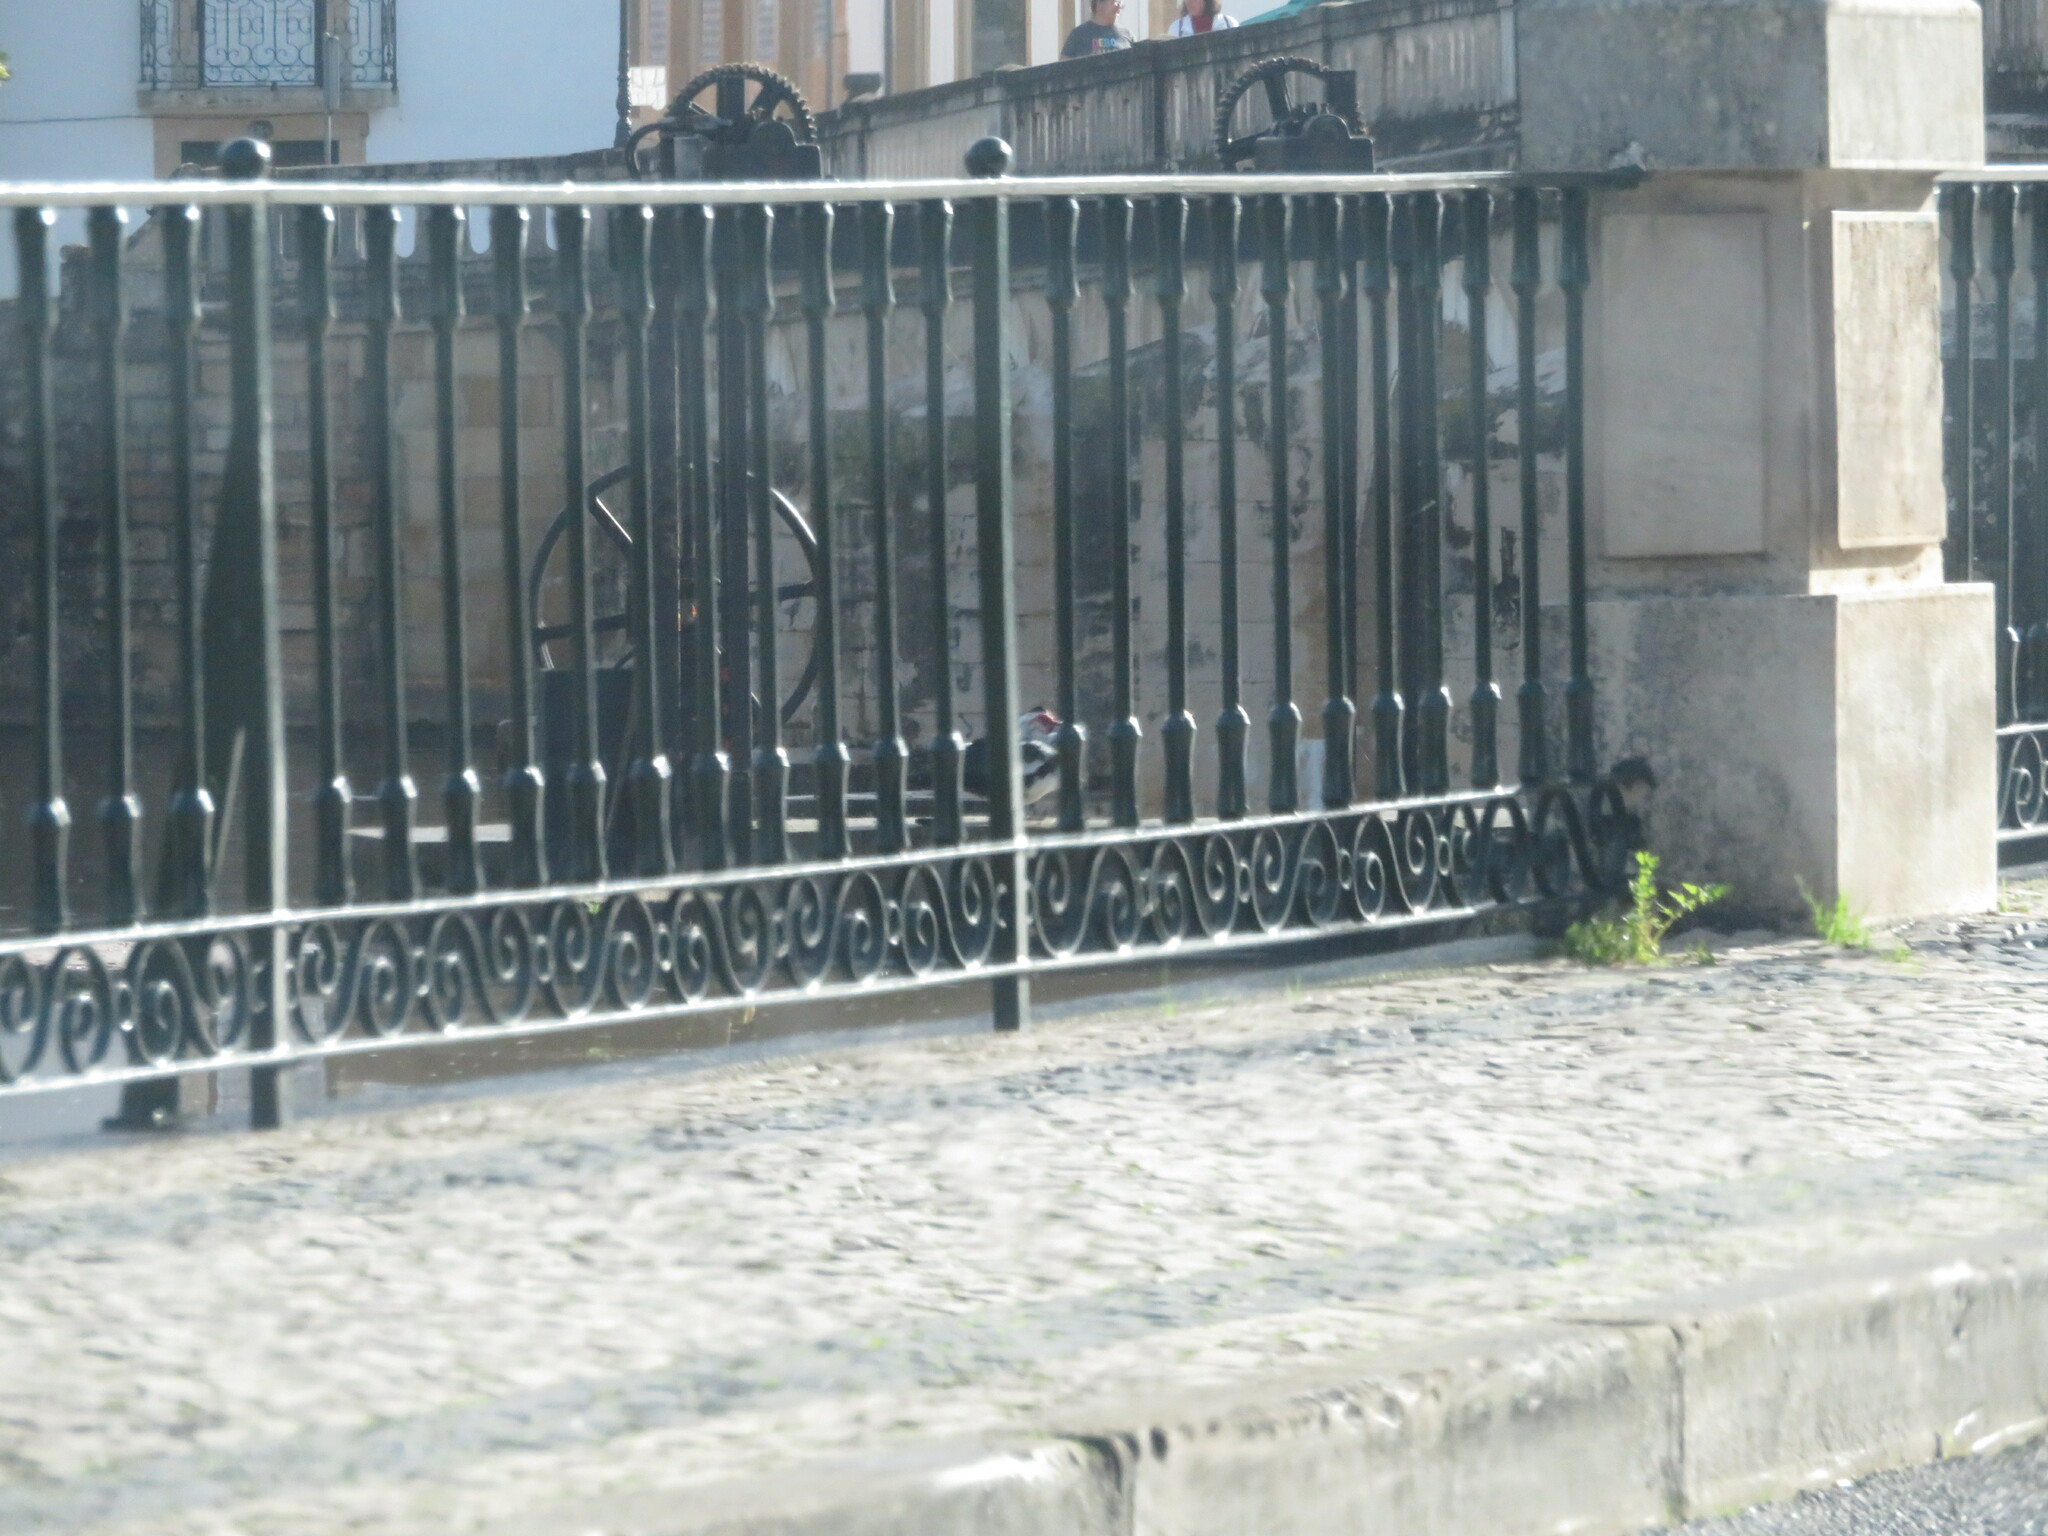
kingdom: Animalia
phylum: Chordata
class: Aves
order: Anseriformes
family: Anatidae
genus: Cairina
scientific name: Cairina moschata
